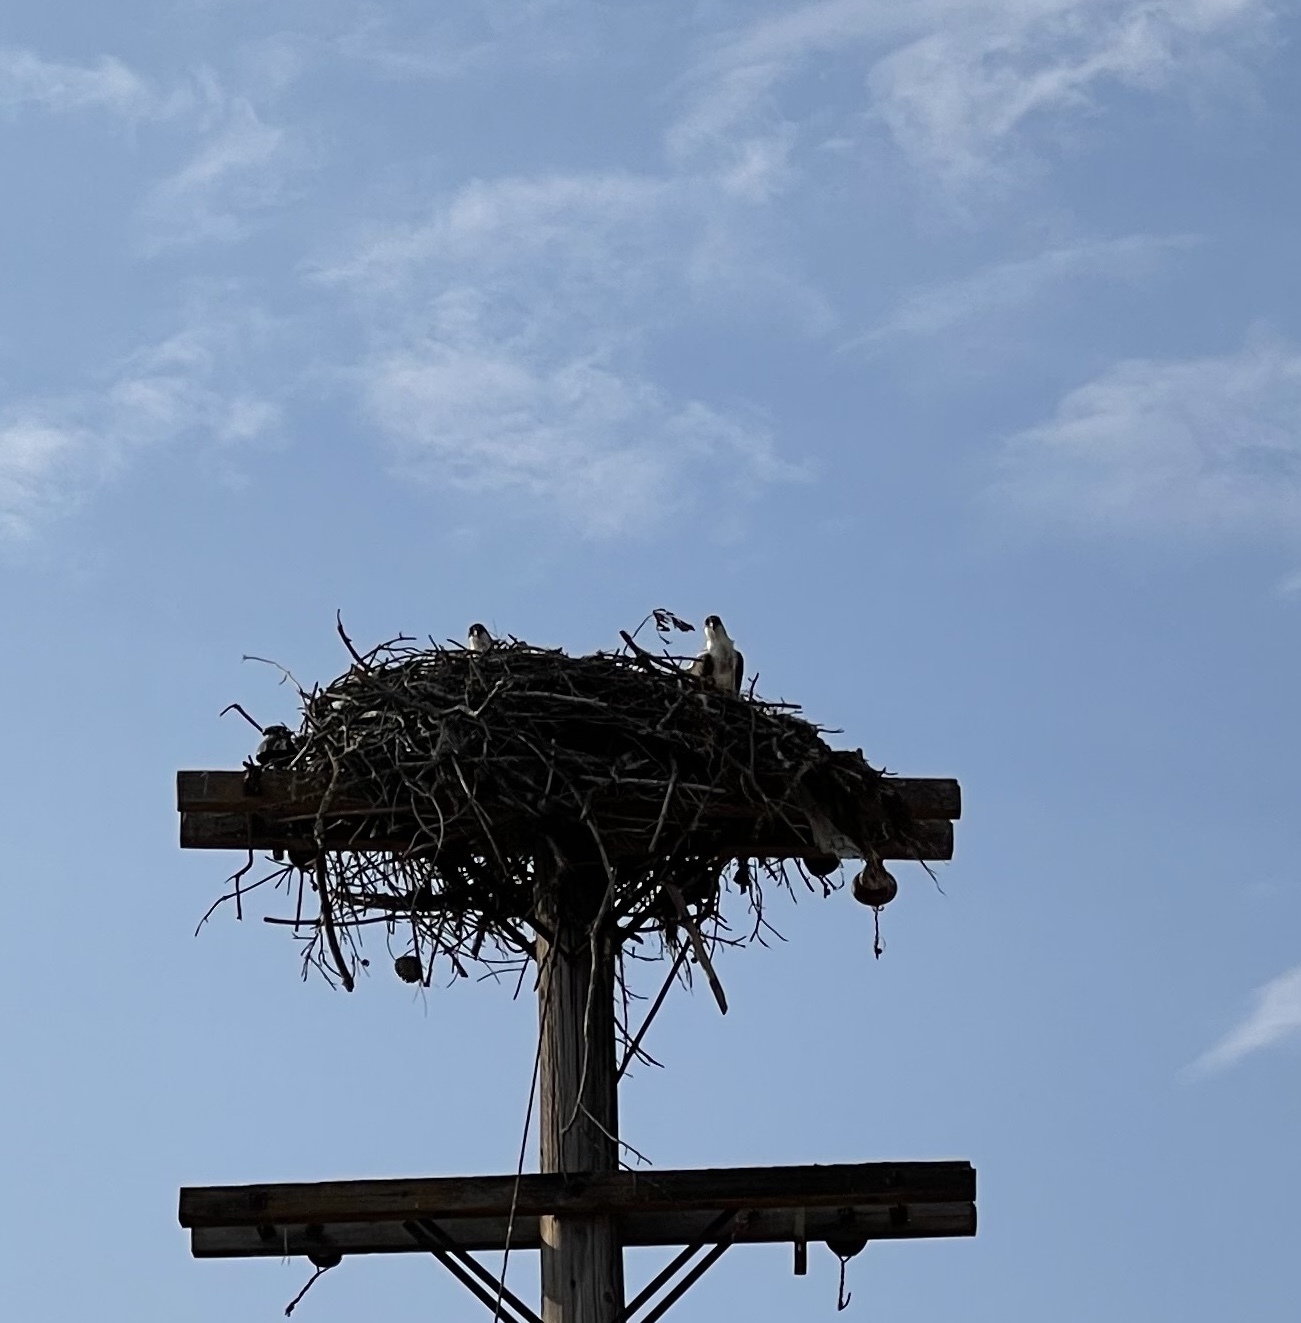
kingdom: Animalia
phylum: Chordata
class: Aves
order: Accipitriformes
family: Pandionidae
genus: Pandion
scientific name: Pandion haliaetus
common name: Osprey
